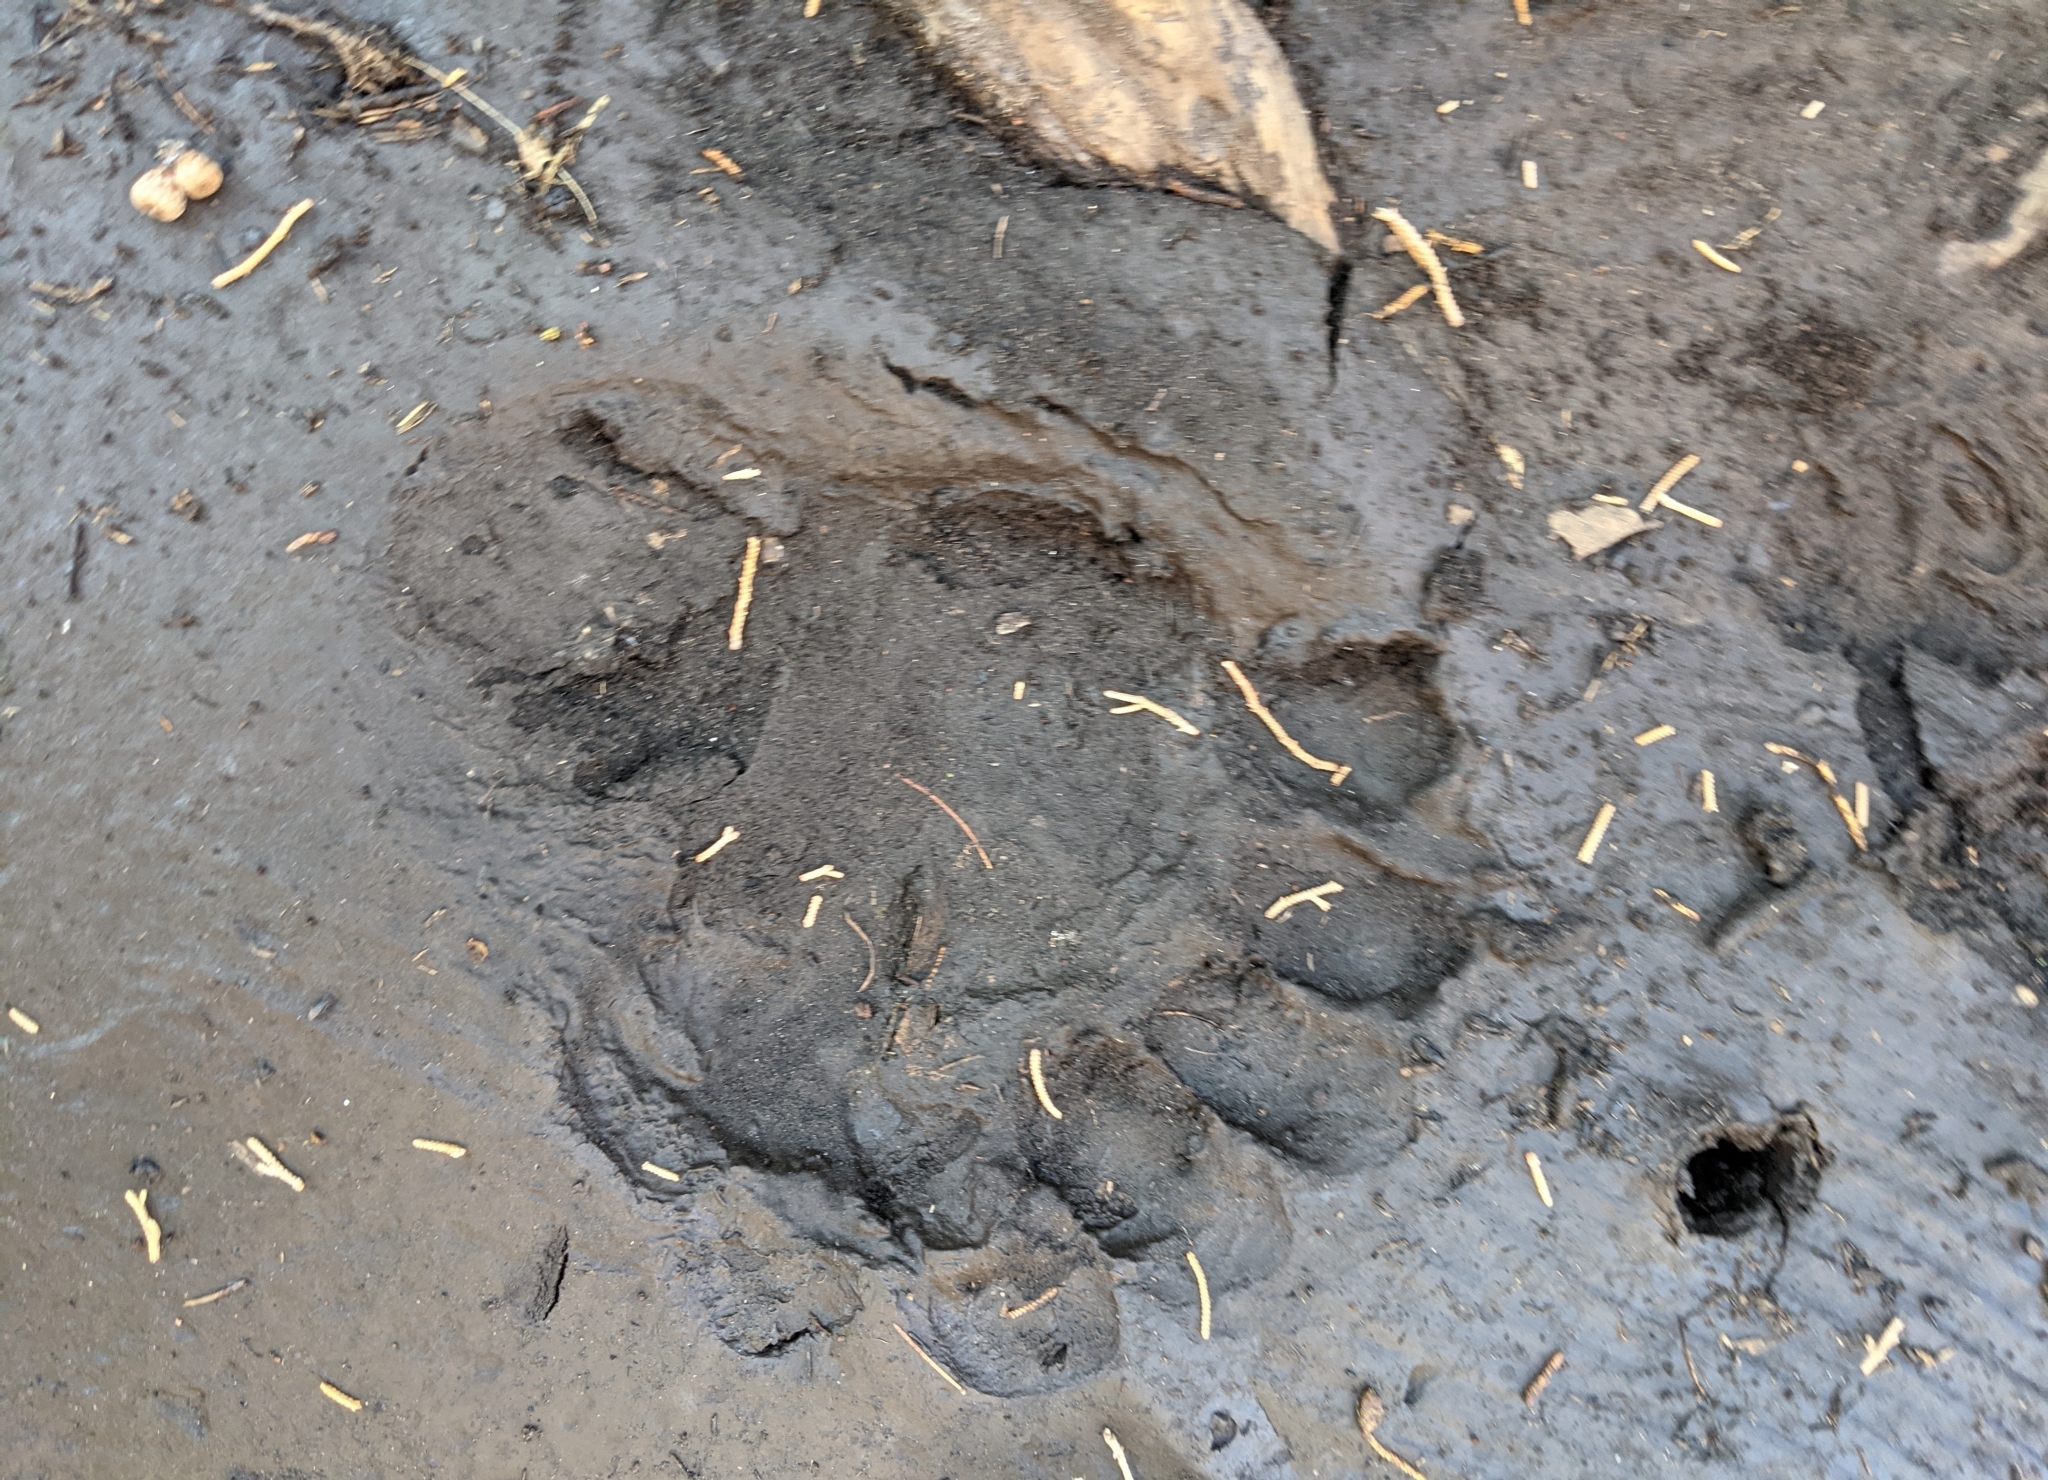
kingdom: Animalia
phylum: Chordata
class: Mammalia
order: Carnivora
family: Ursidae
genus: Ursus
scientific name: Ursus americanus
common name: American black bear
